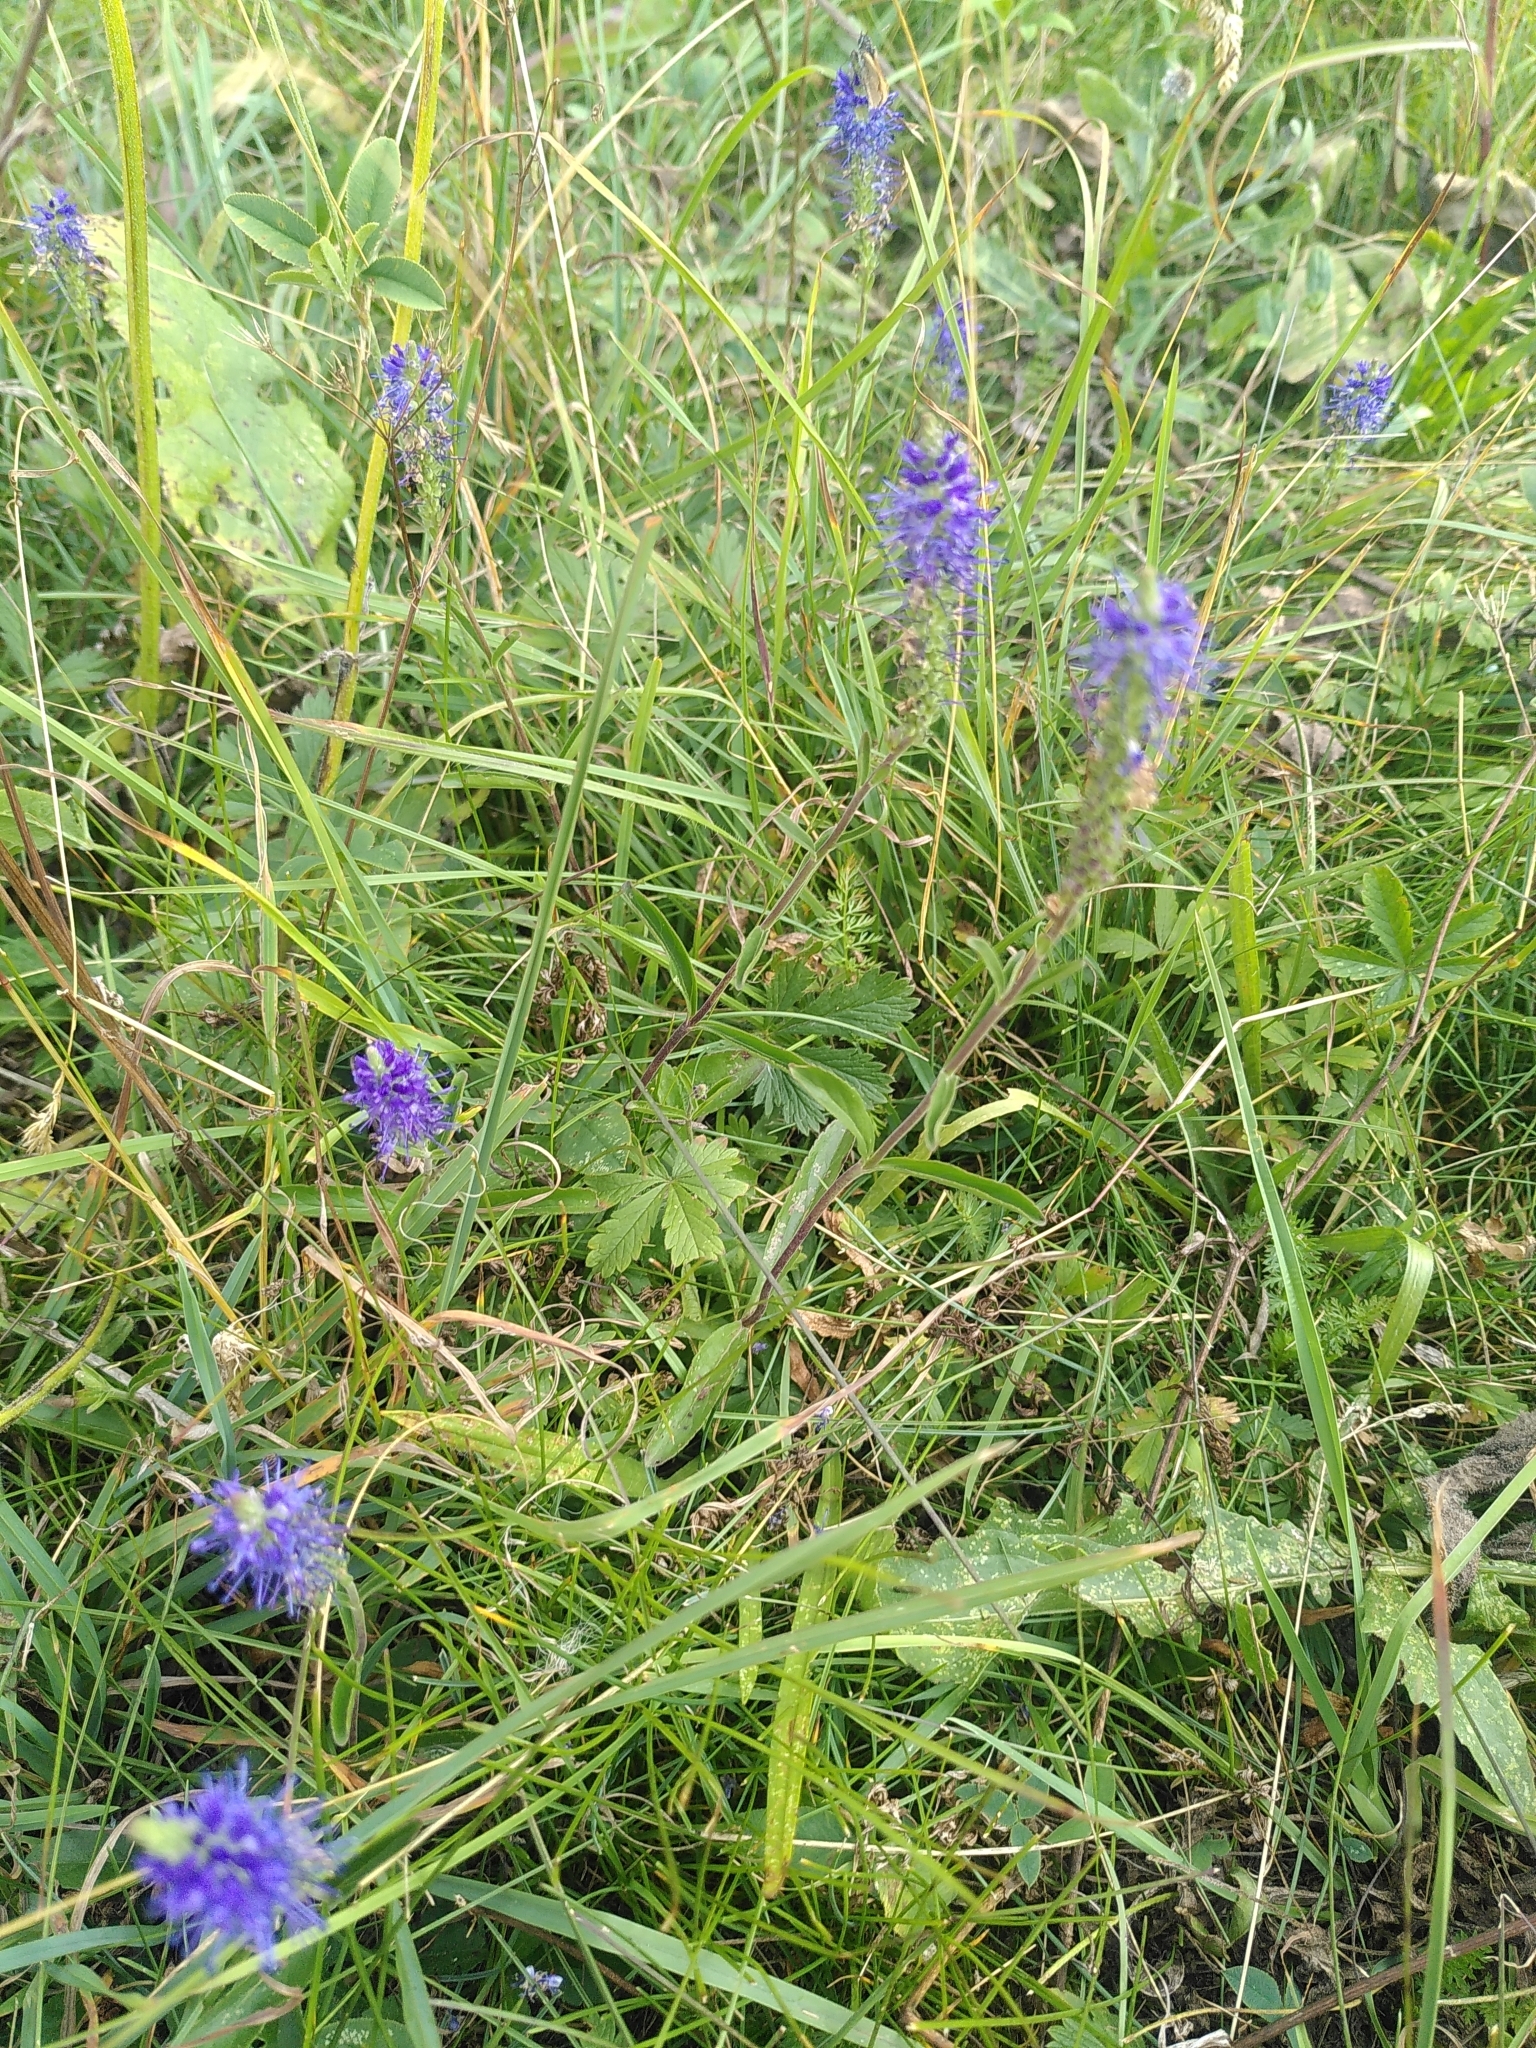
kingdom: Plantae
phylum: Tracheophyta
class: Magnoliopsida
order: Lamiales
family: Plantaginaceae
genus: Veronica
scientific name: Veronica spicata
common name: Spiked speedwell
